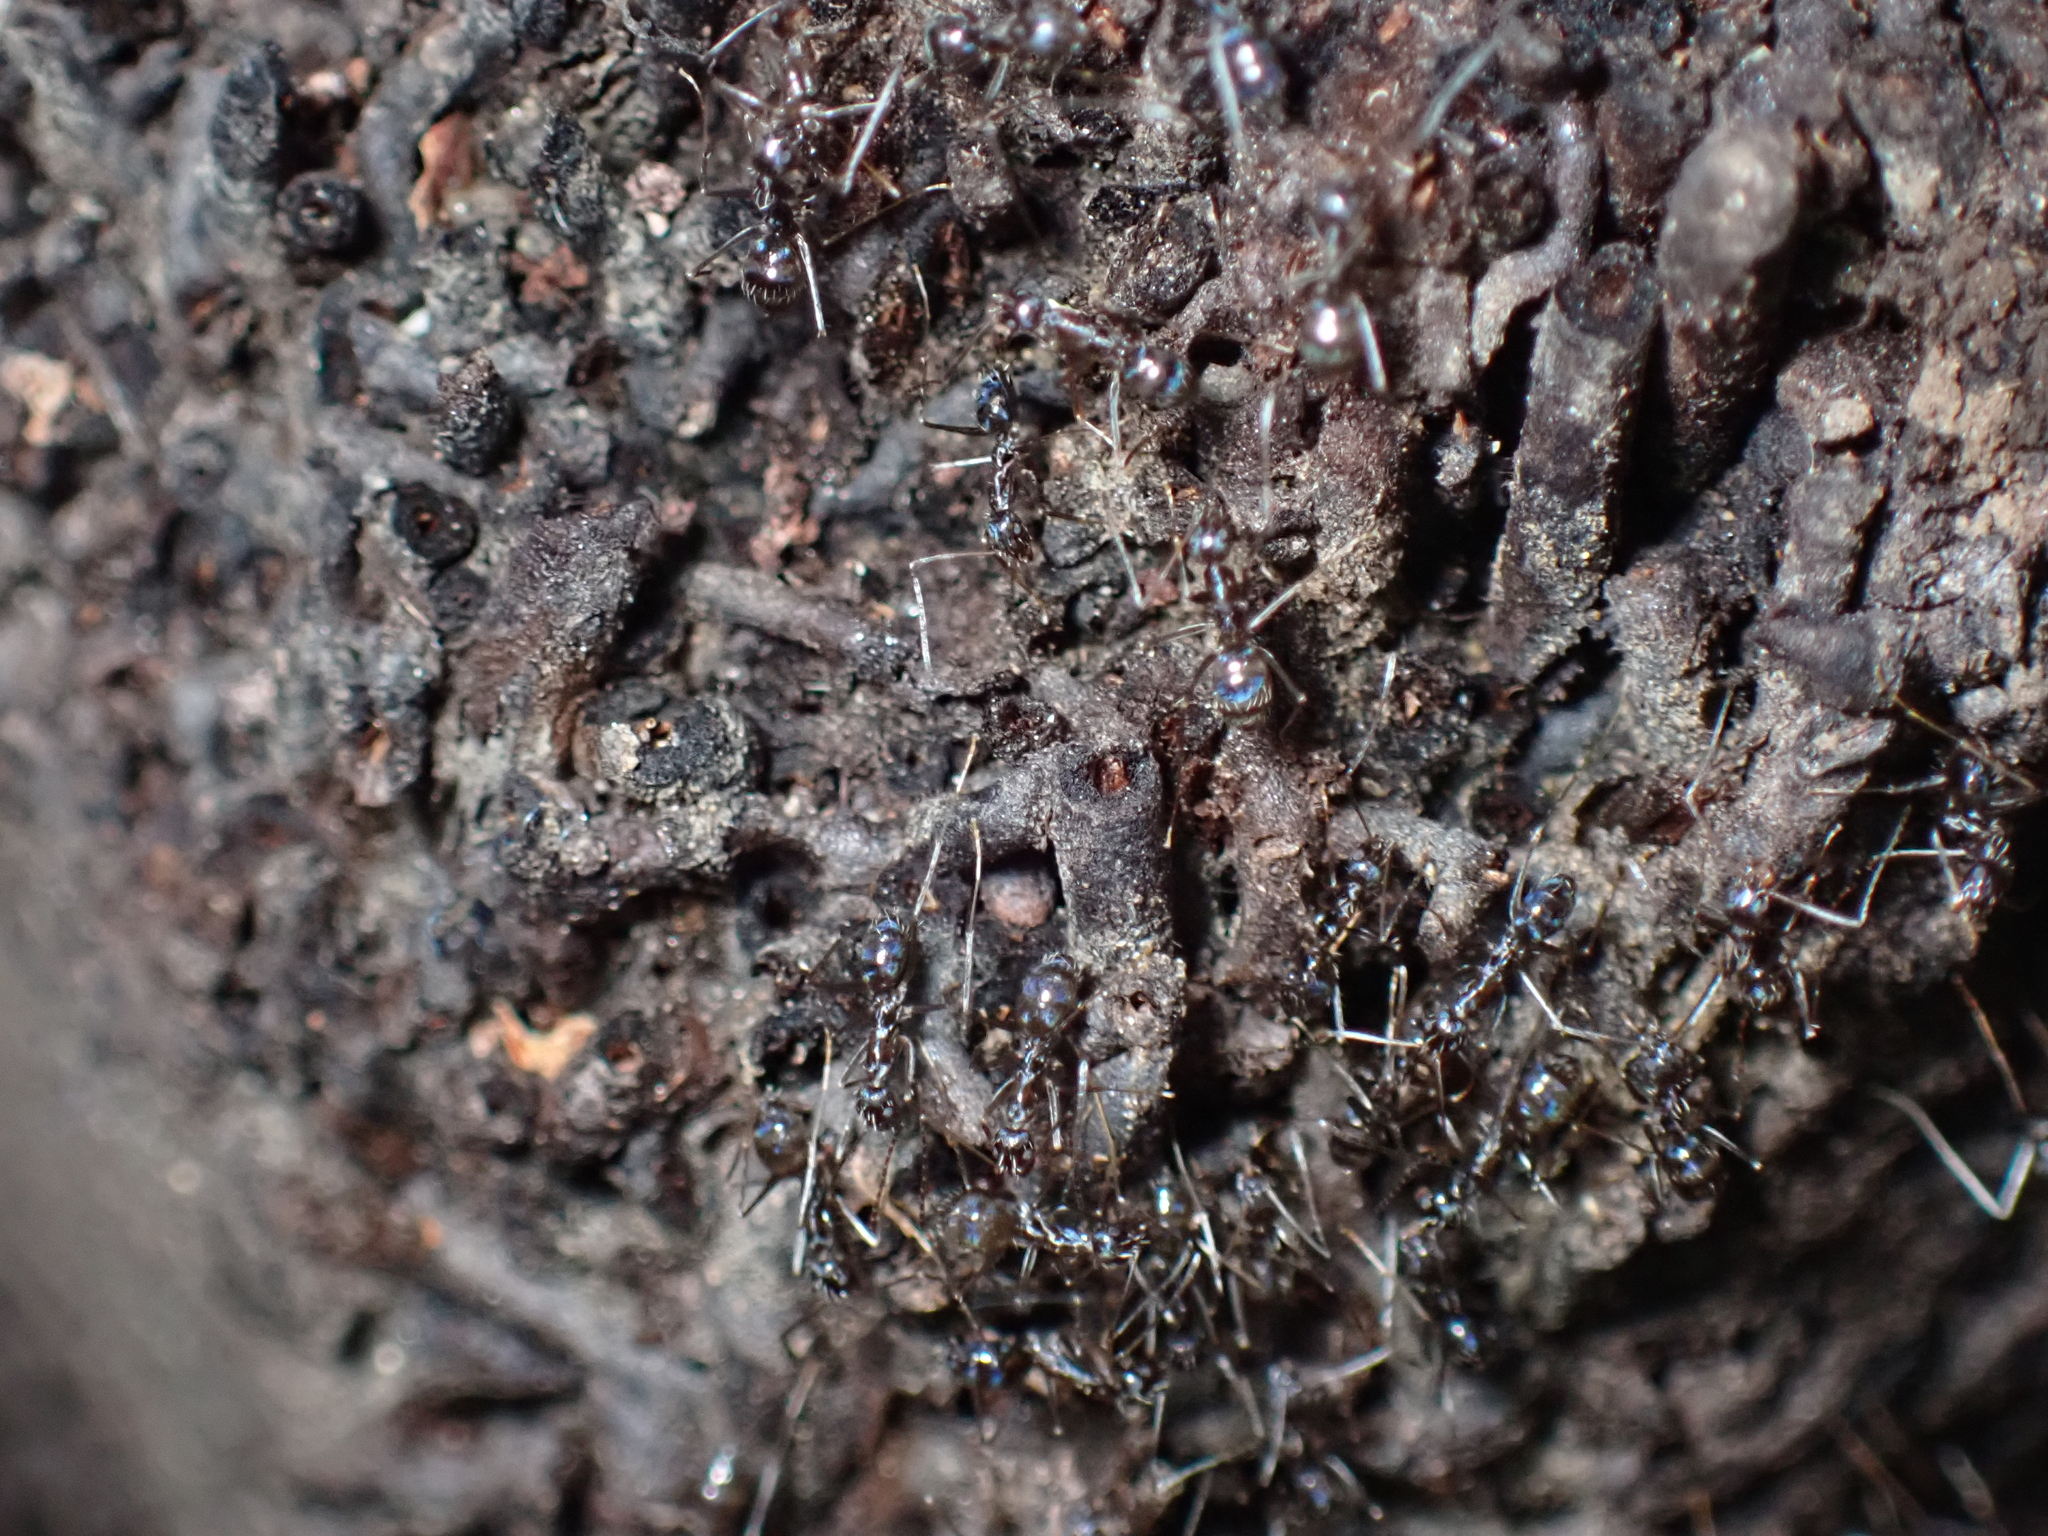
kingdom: Animalia
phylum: Arthropoda
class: Insecta
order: Hymenoptera
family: Formicidae
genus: Paratrechina
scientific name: Paratrechina longicornis
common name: Longhorned crazy ant
